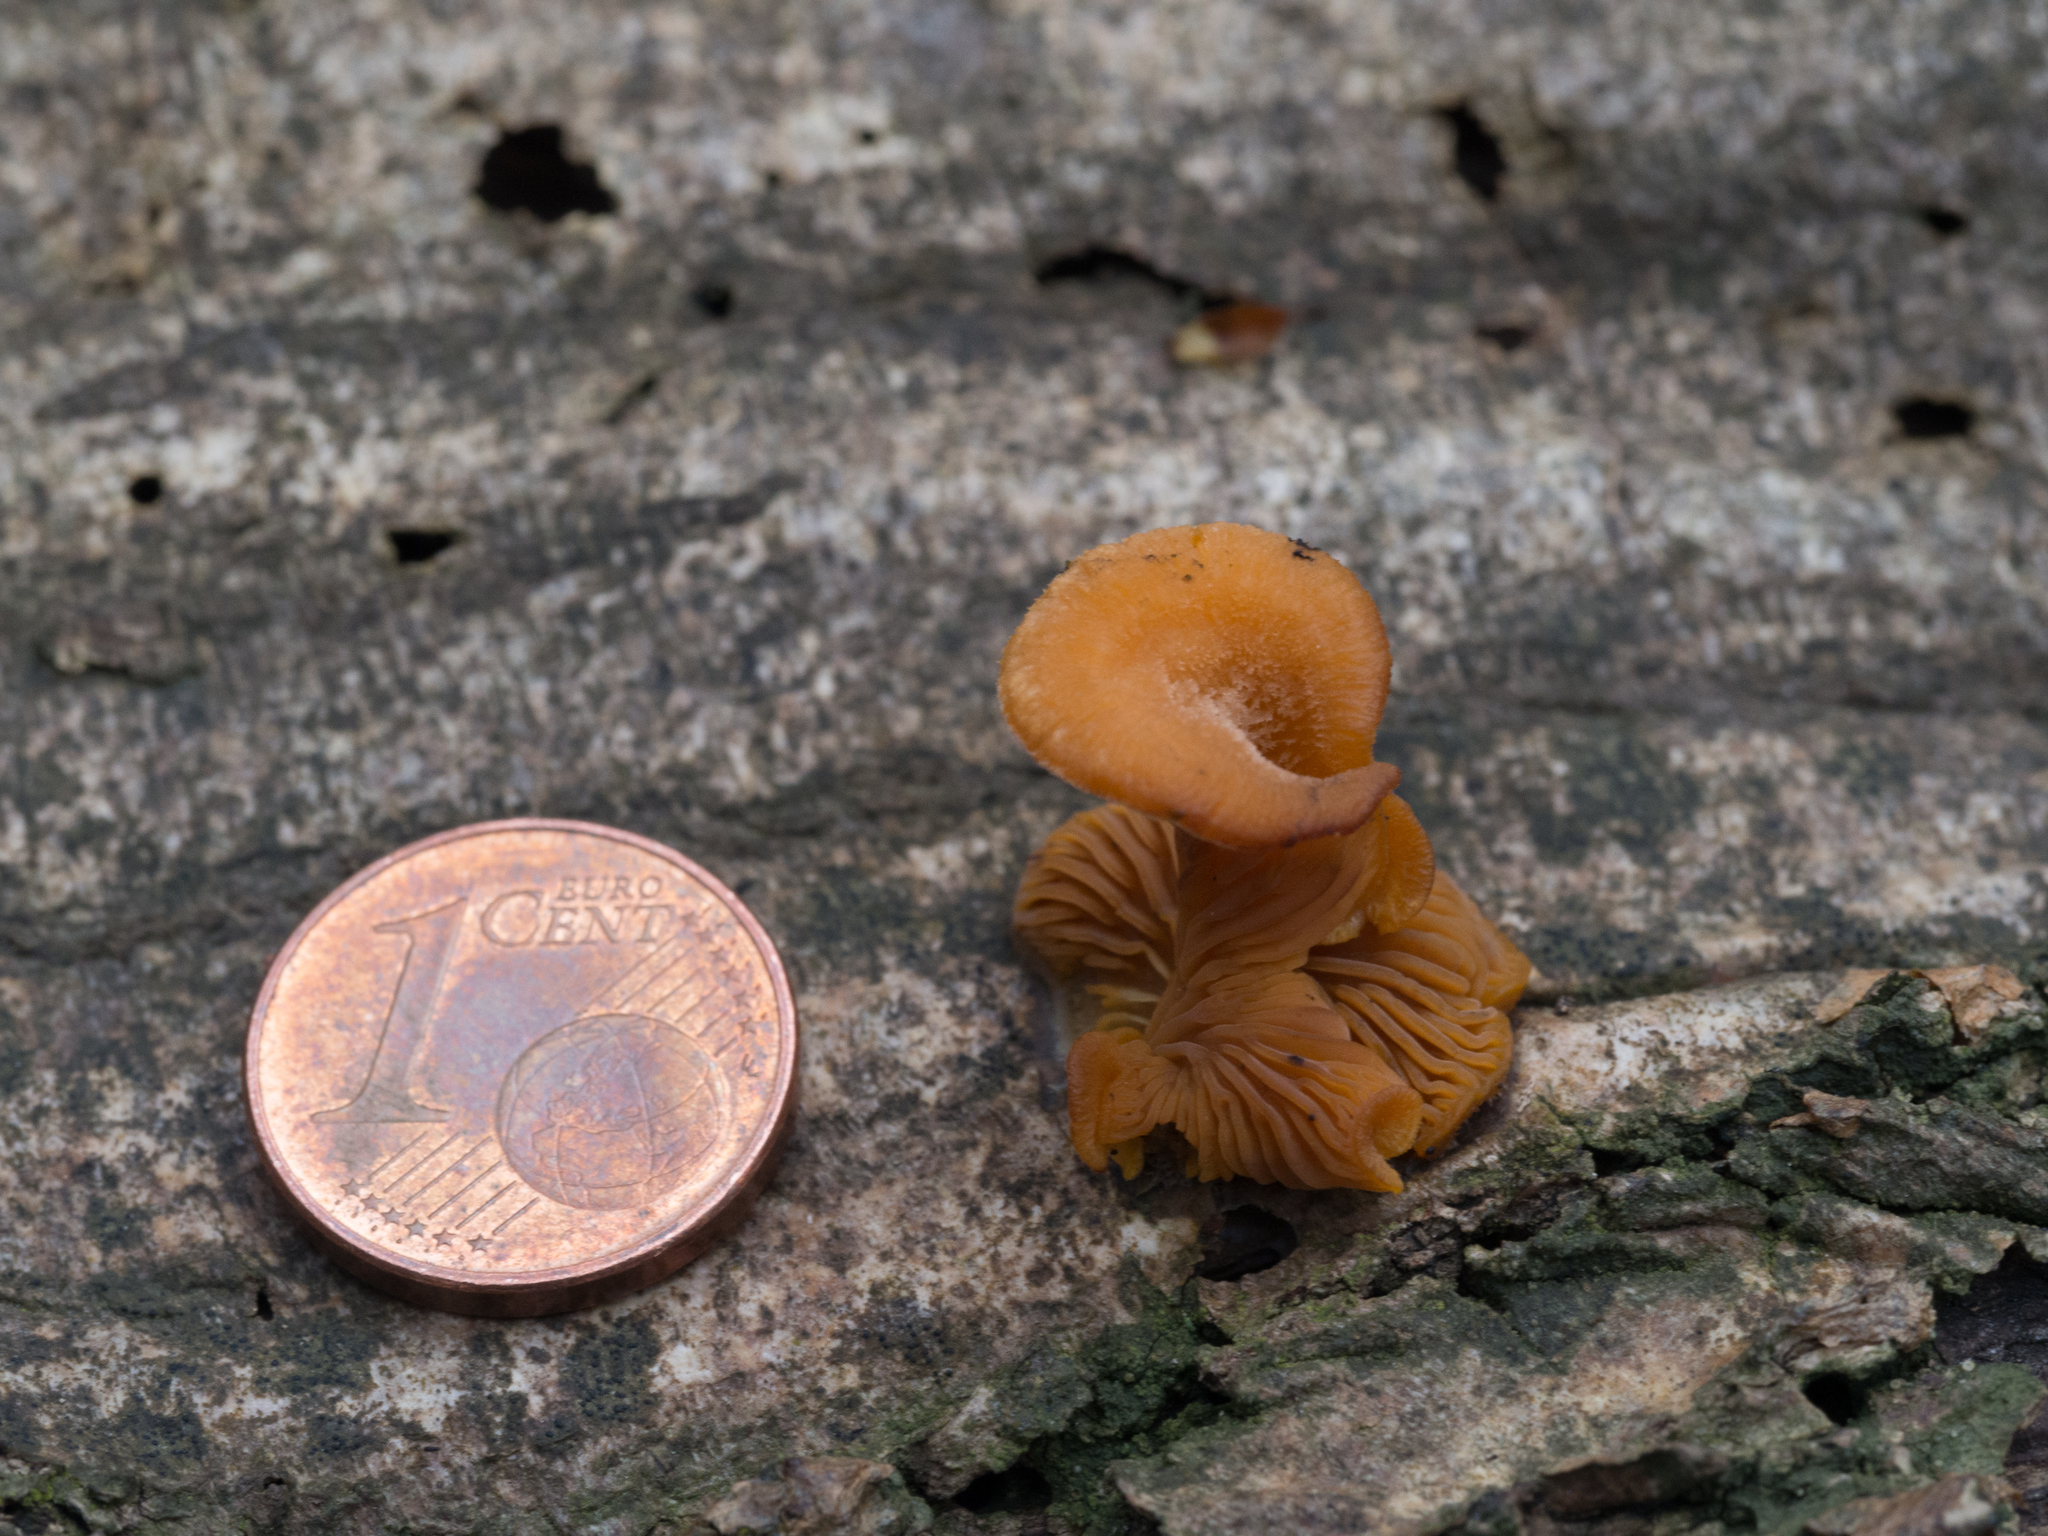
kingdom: Fungi
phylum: Basidiomycota
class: Agaricomycetes
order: Agaricales
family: Phyllotopsidaceae
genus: Phyllotopsis
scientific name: Phyllotopsis nidulans
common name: Orange mock oyster
